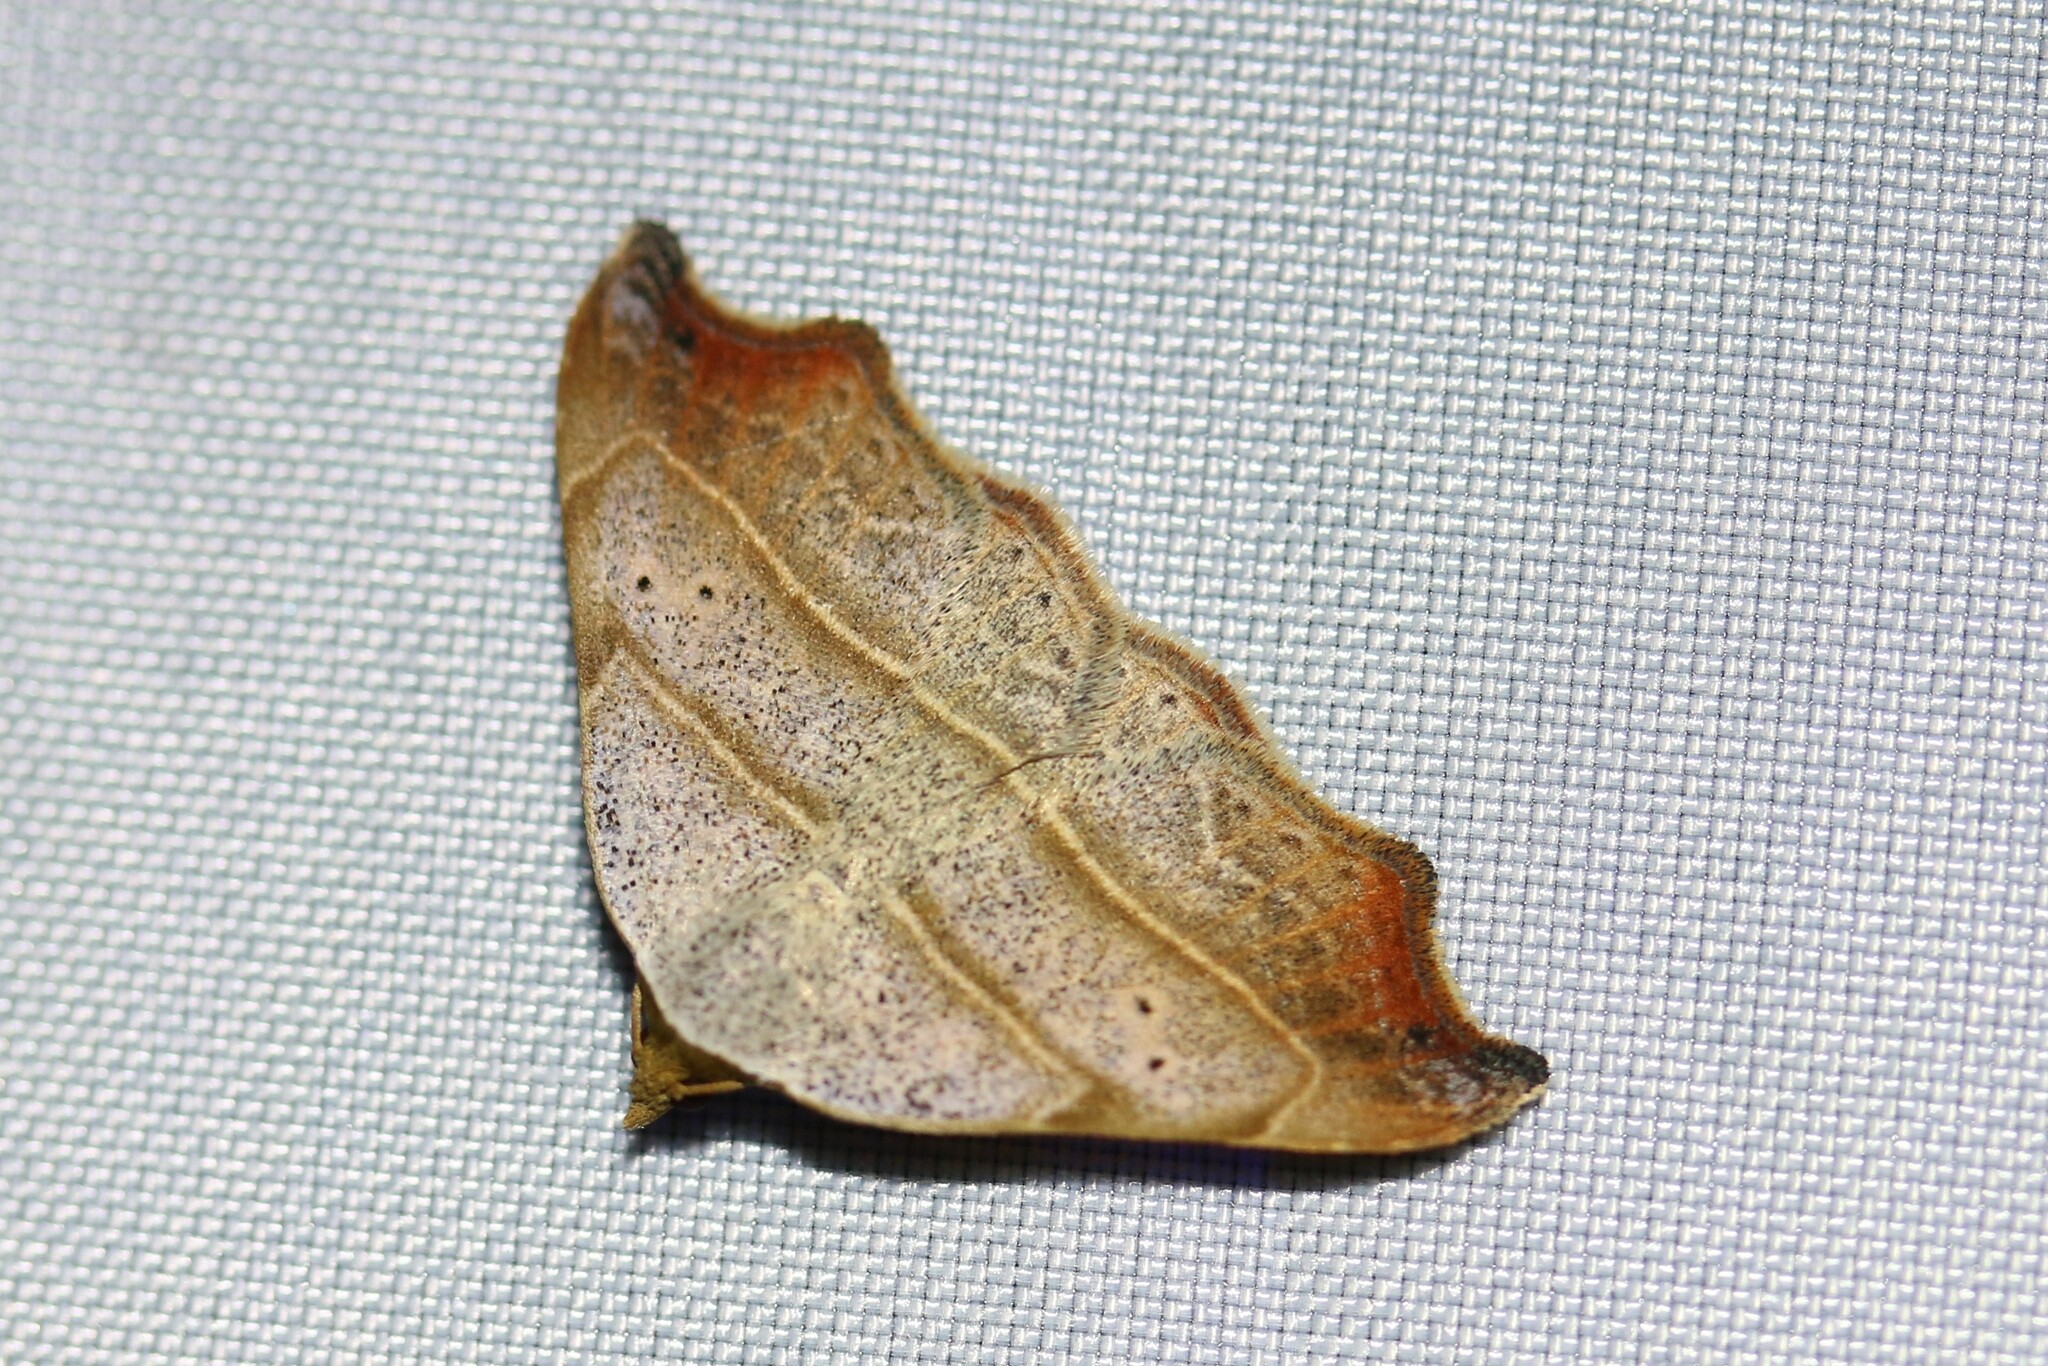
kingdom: Animalia
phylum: Arthropoda
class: Insecta
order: Lepidoptera
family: Erebidae
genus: Laspeyria
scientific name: Laspeyria flexula
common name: Beautiful hook-tip
